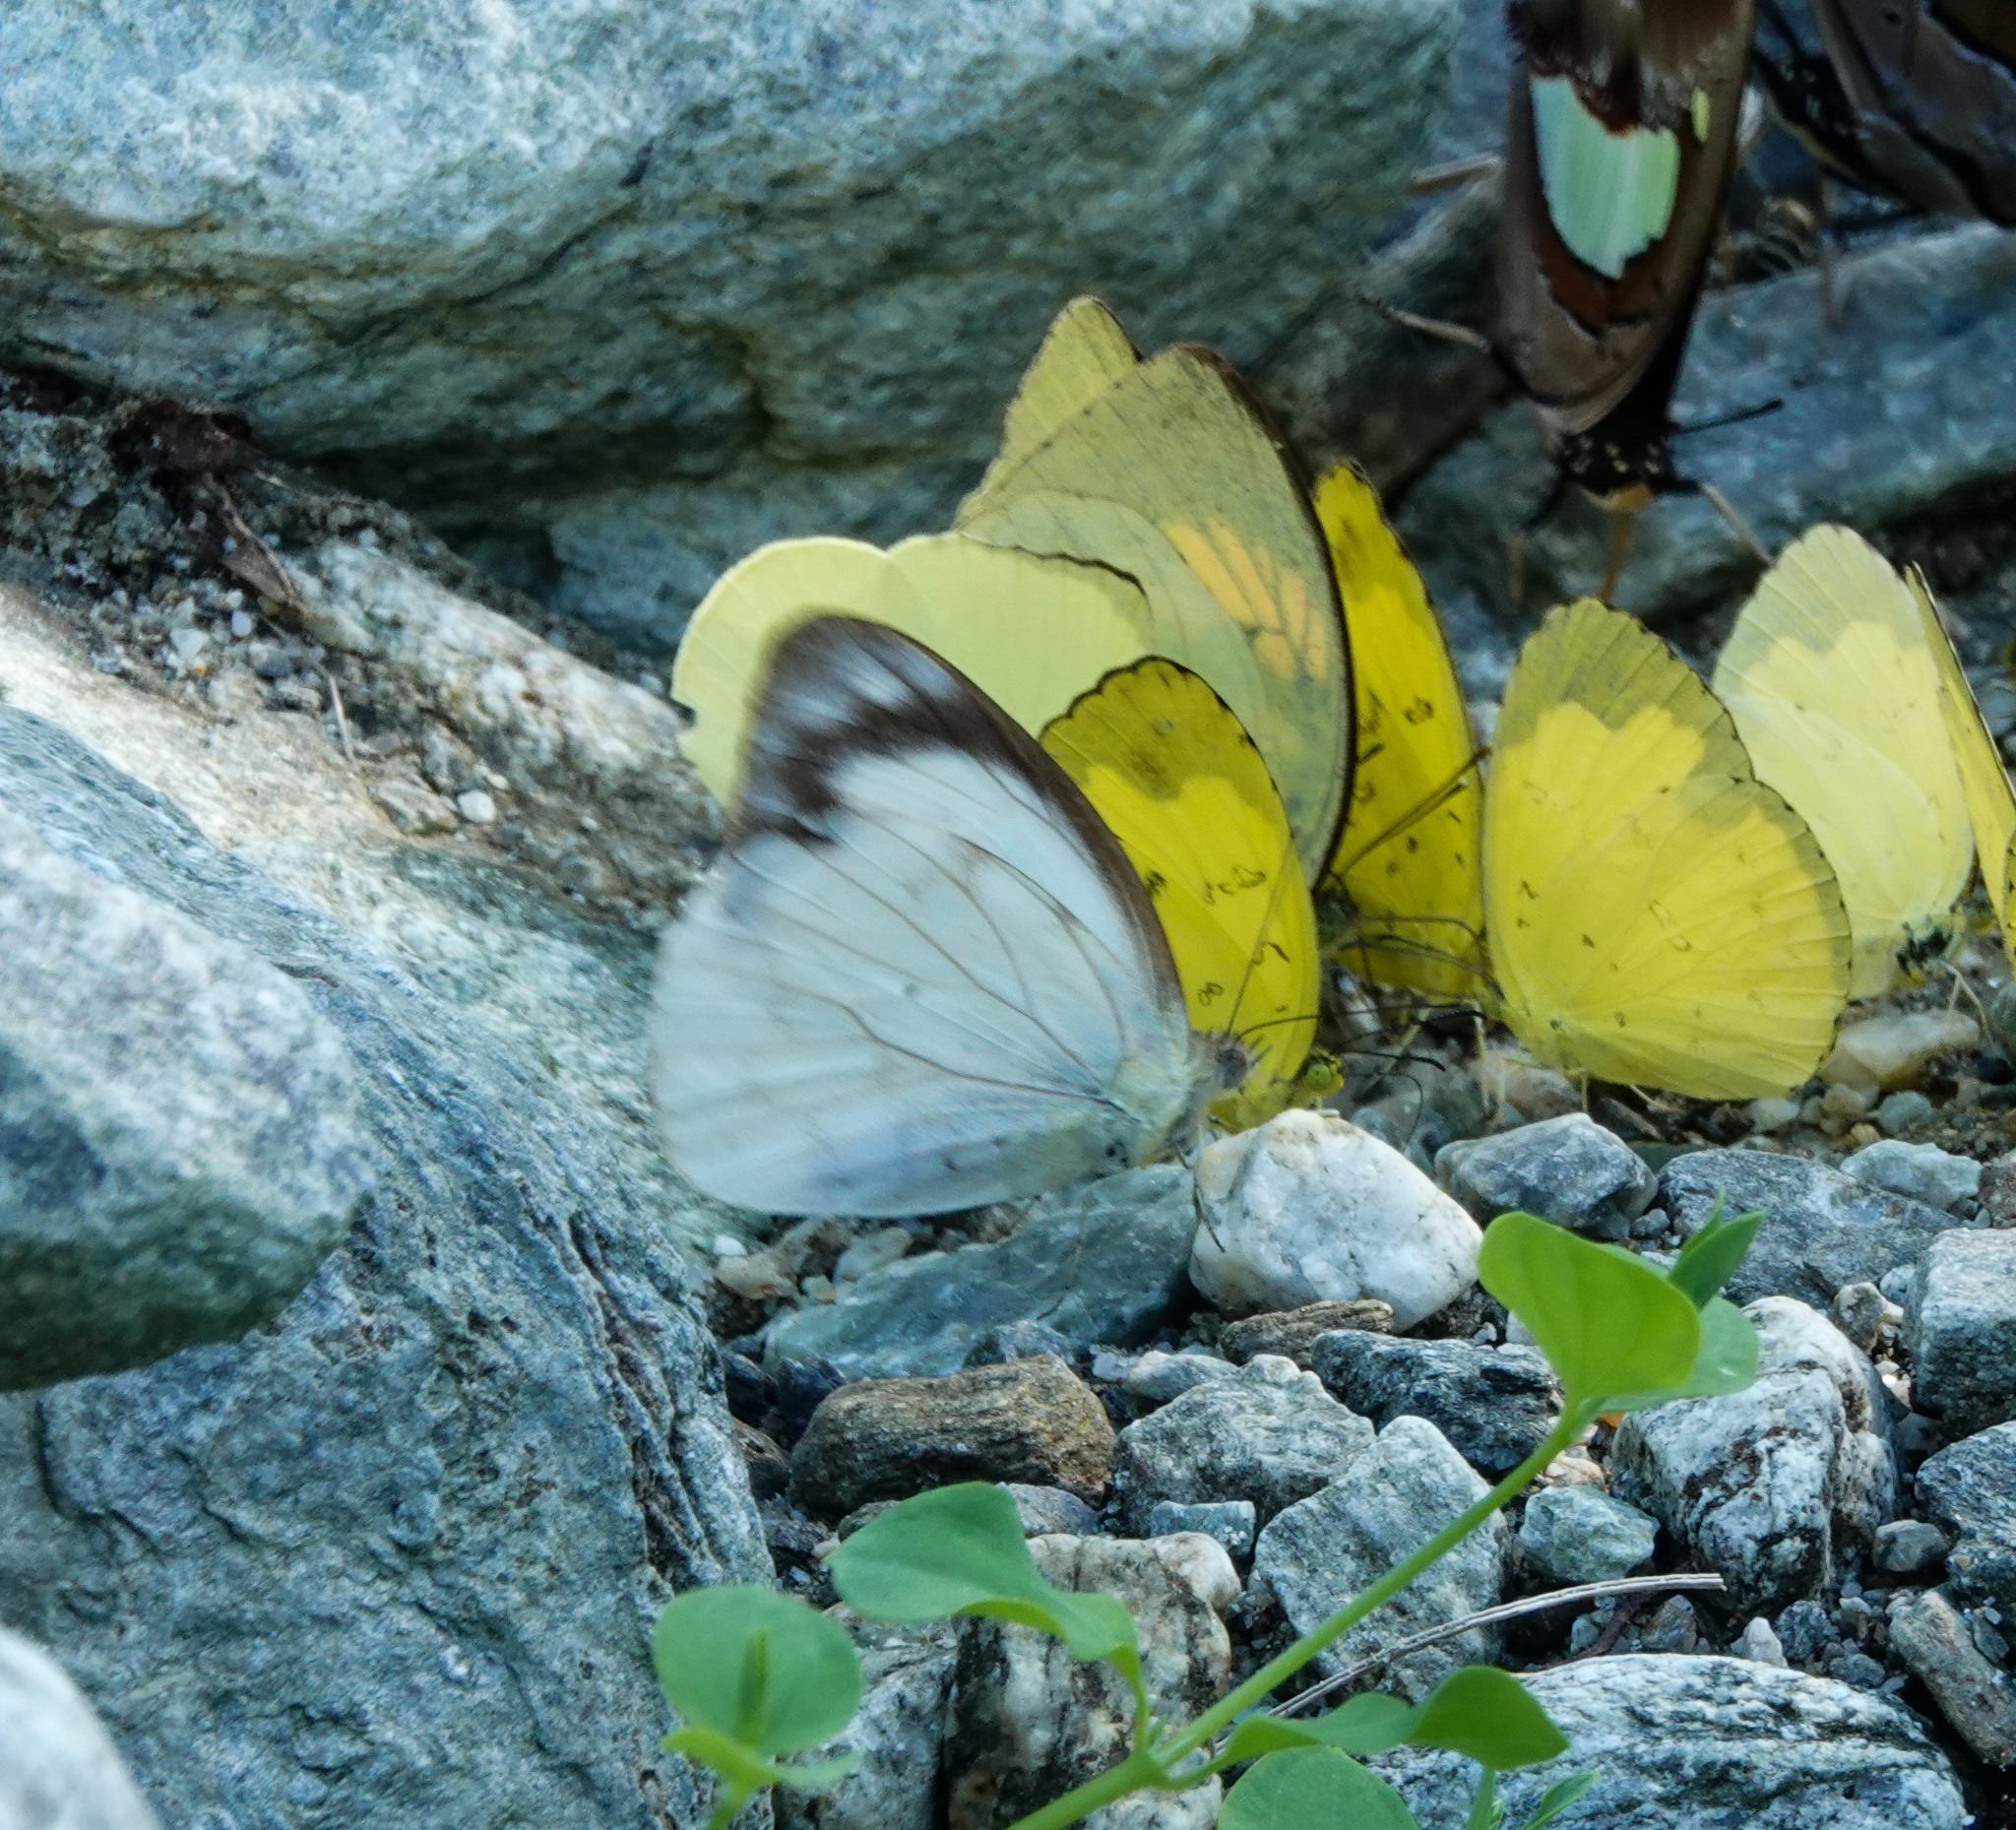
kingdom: Animalia
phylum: Arthropoda
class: Insecta
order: Lepidoptera
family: Pieridae
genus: Appias
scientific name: Appias indra
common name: Plain puffin
